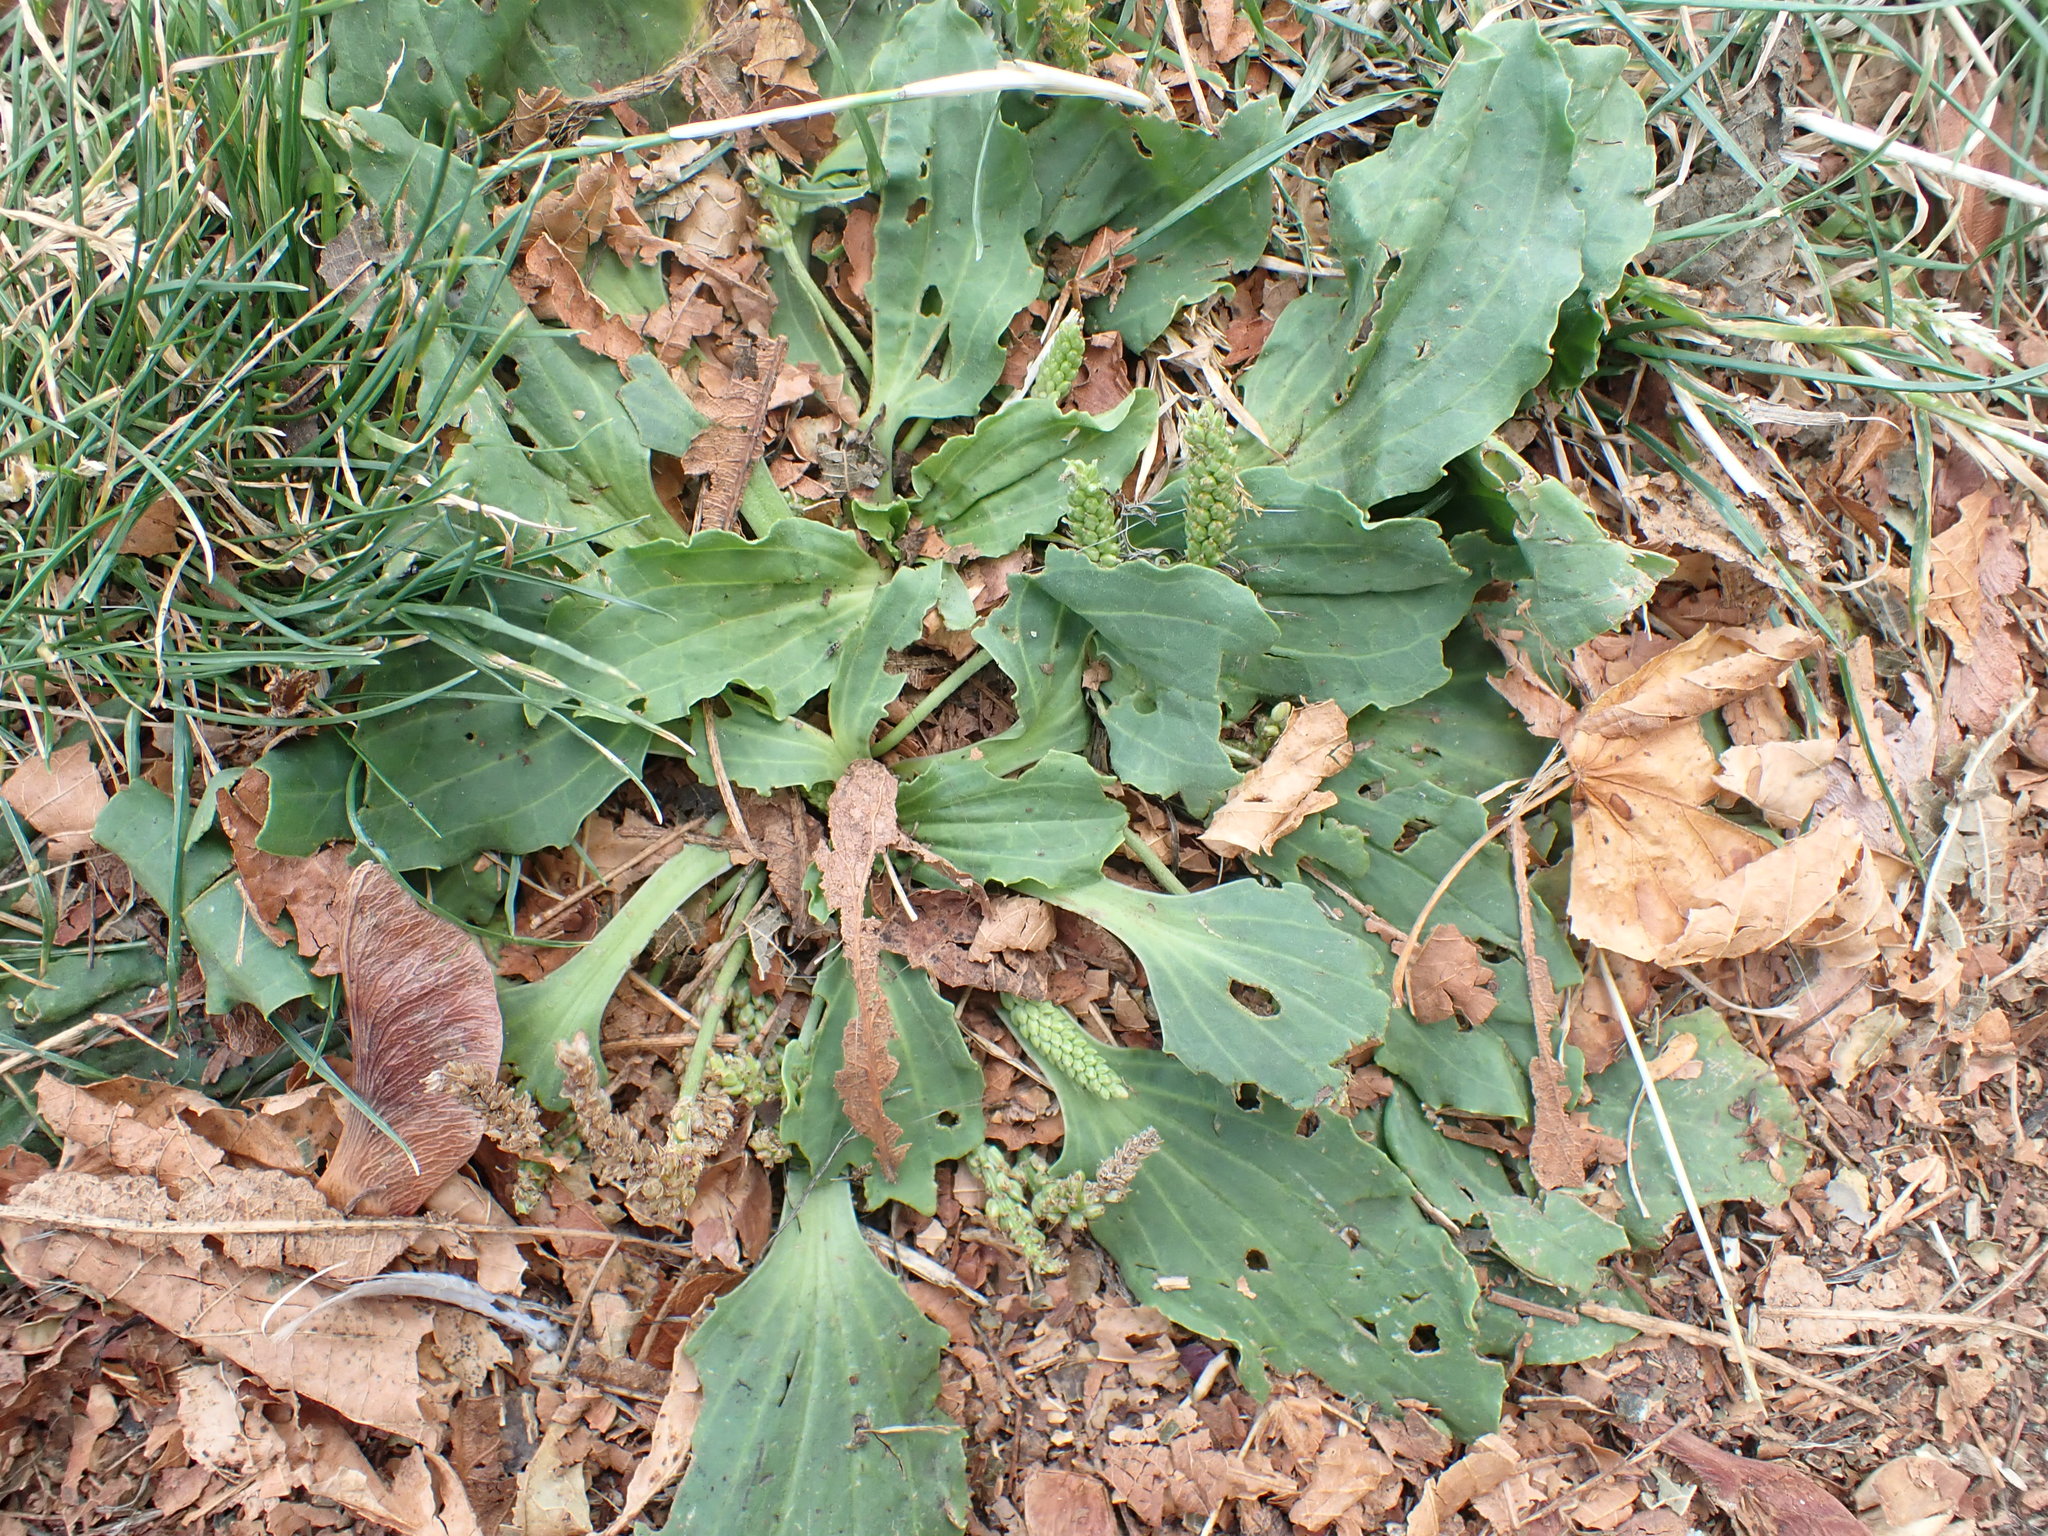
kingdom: Plantae
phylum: Tracheophyta
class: Magnoliopsida
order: Lamiales
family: Plantaginaceae
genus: Plantago
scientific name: Plantago major
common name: Common plantain
